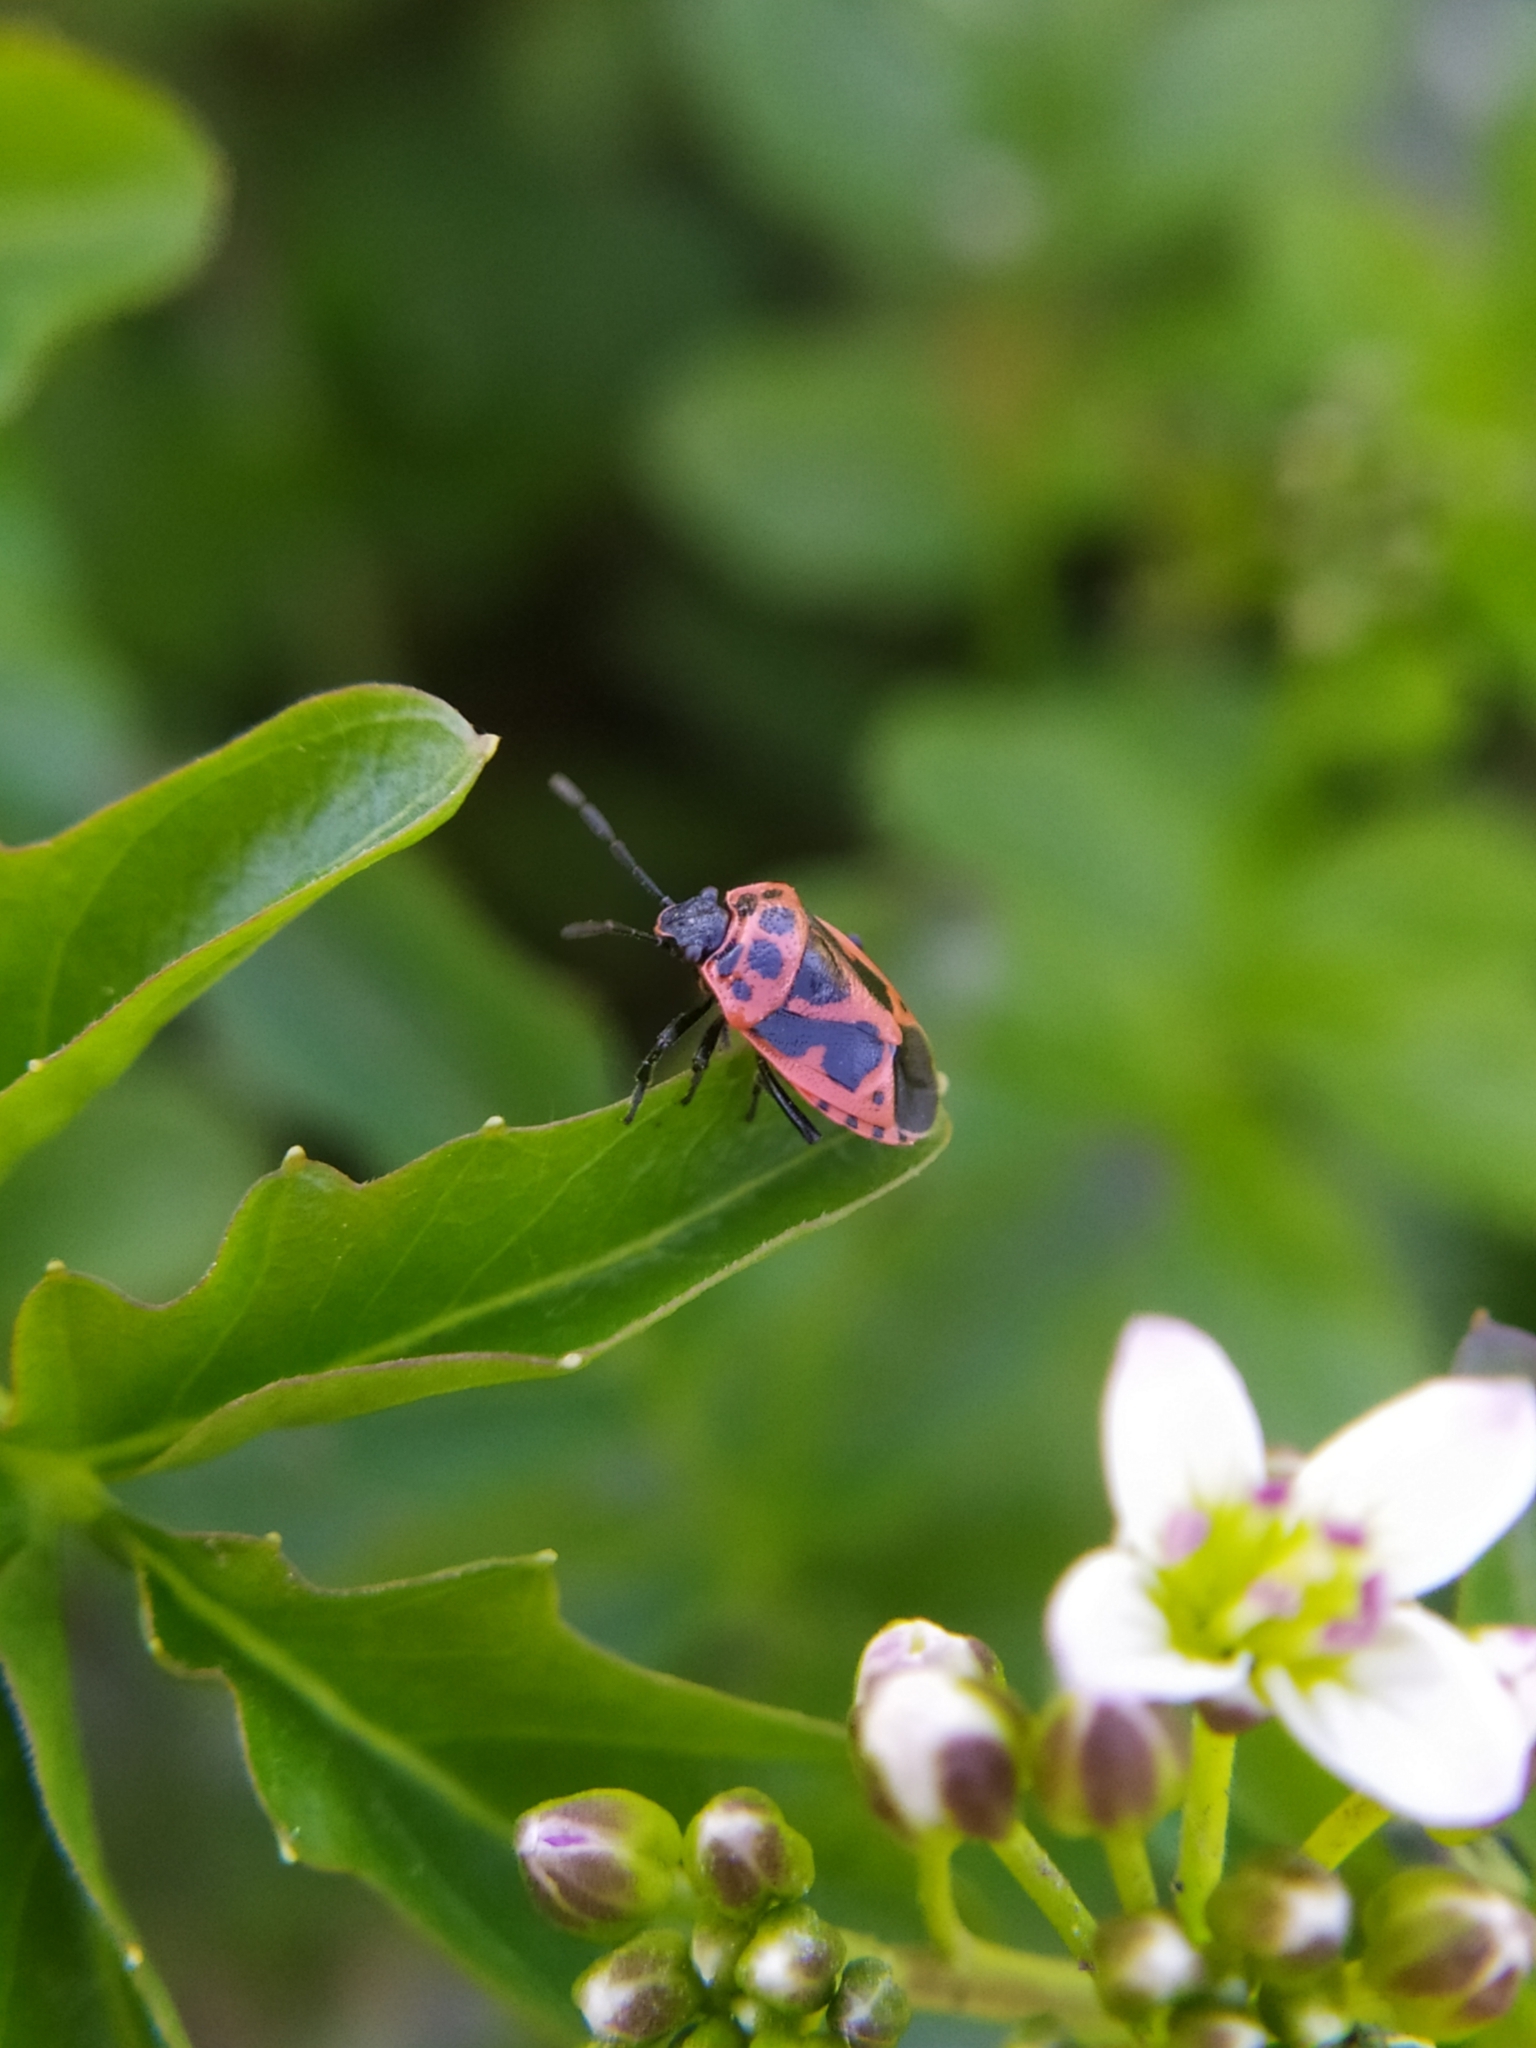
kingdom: Animalia
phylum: Arthropoda
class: Insecta
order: Hemiptera
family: Pentatomidae
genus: Eurydema
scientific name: Eurydema dominulus
